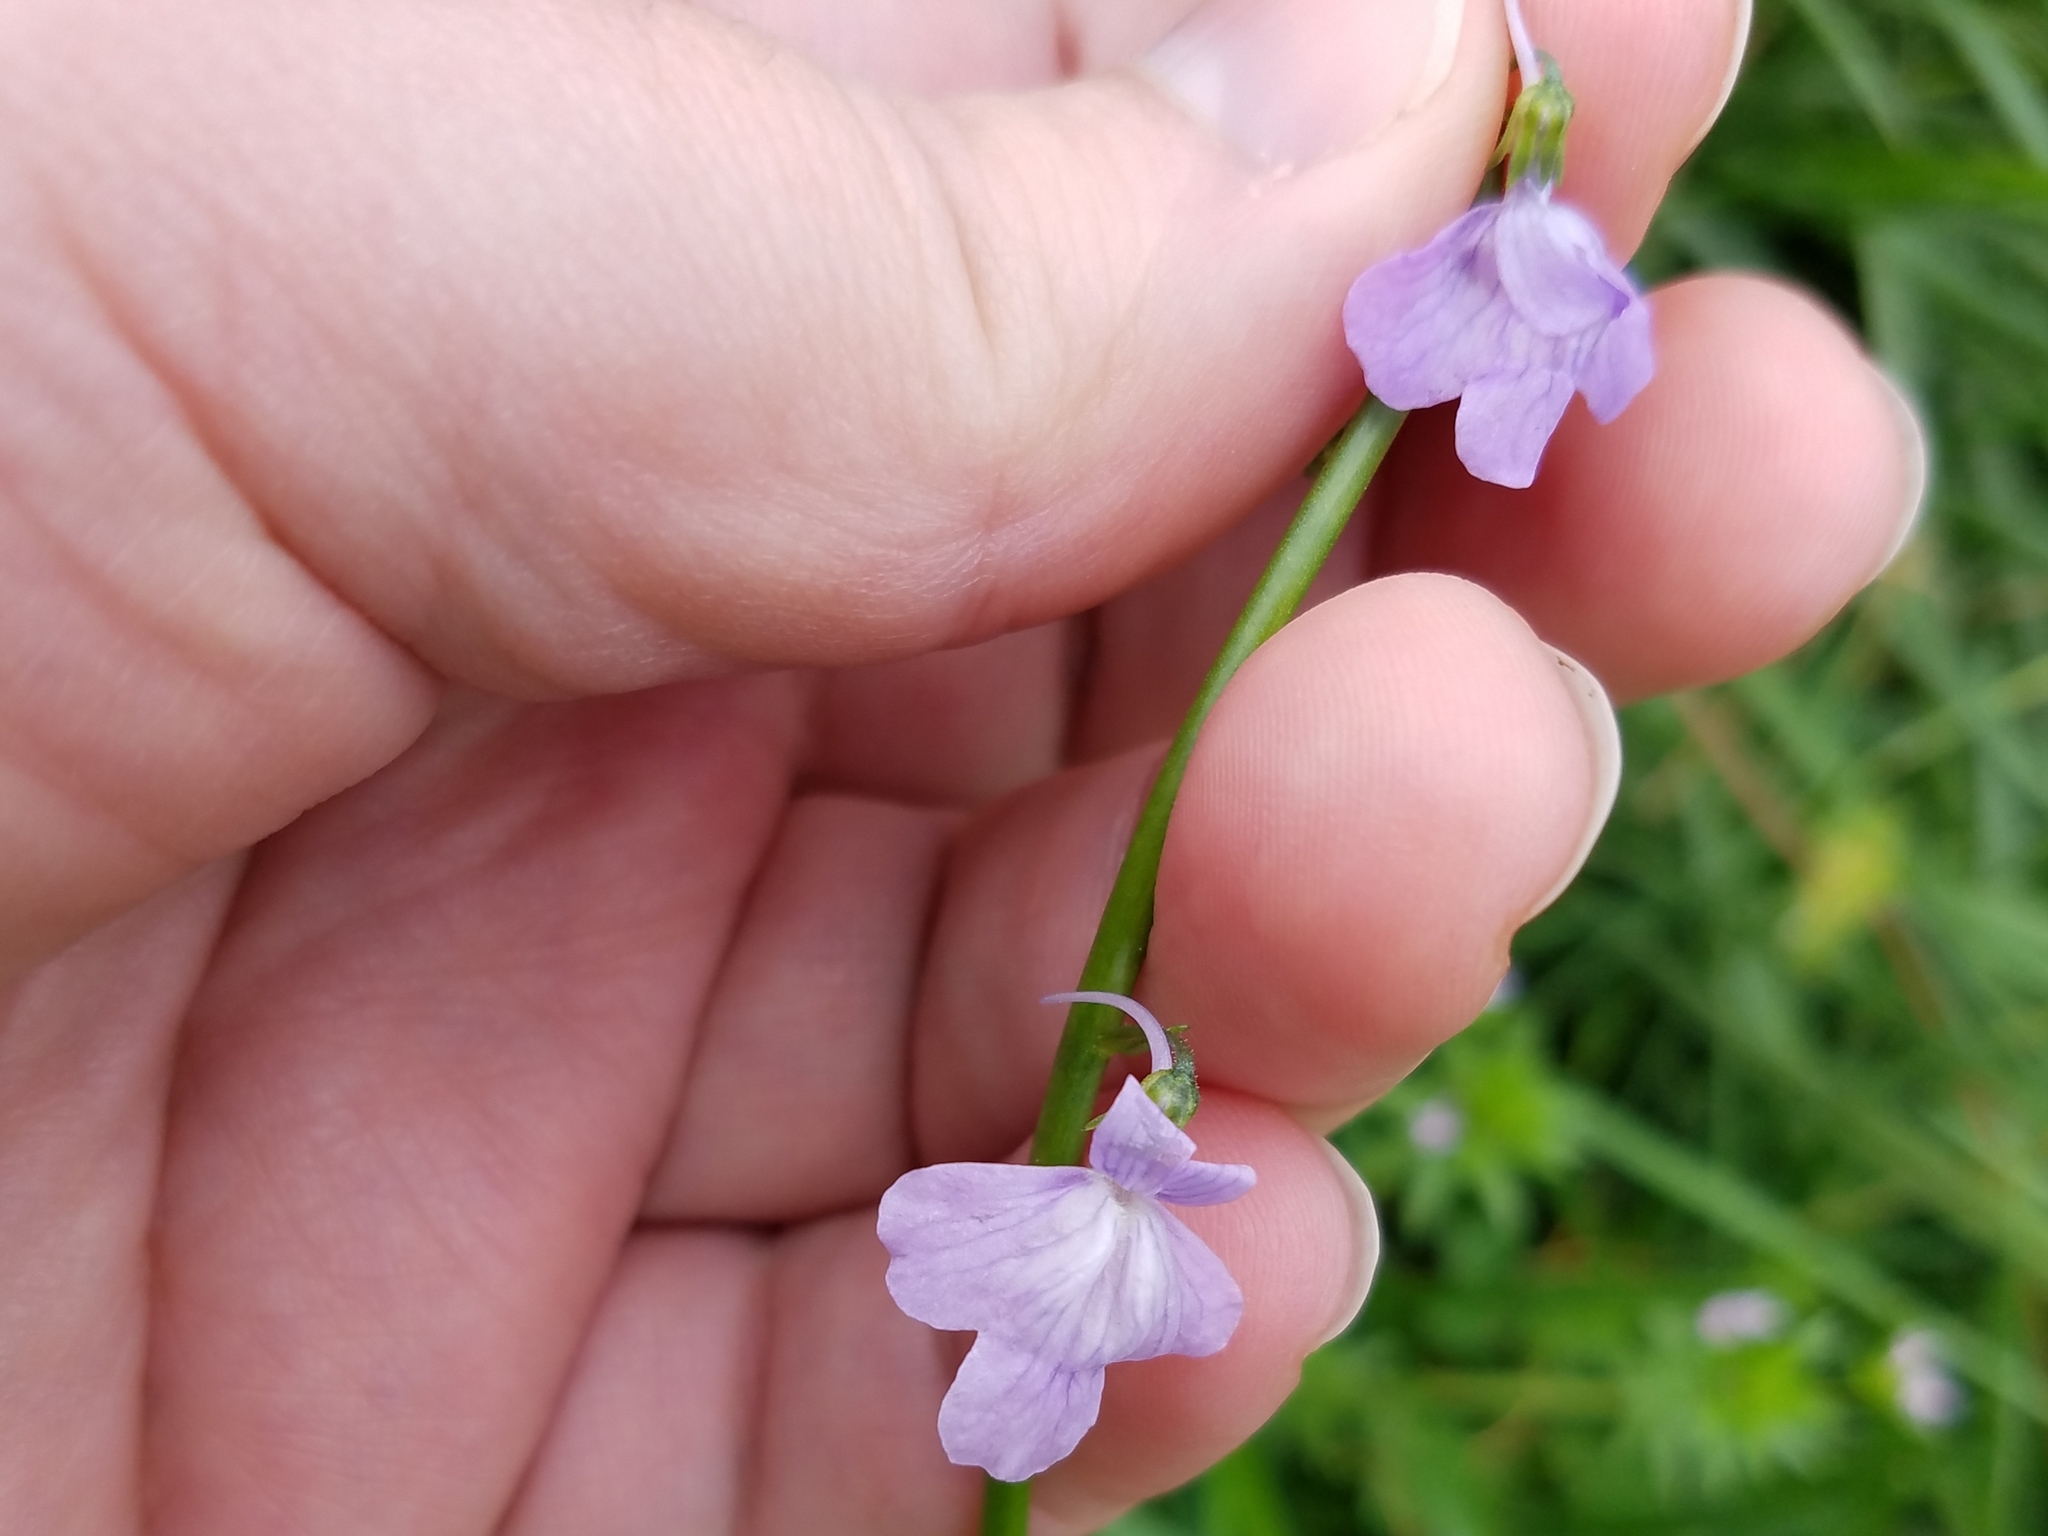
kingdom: Plantae
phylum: Tracheophyta
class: Magnoliopsida
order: Lamiales
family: Plantaginaceae
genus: Nuttallanthus
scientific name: Nuttallanthus texanus
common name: Texas toadflax
